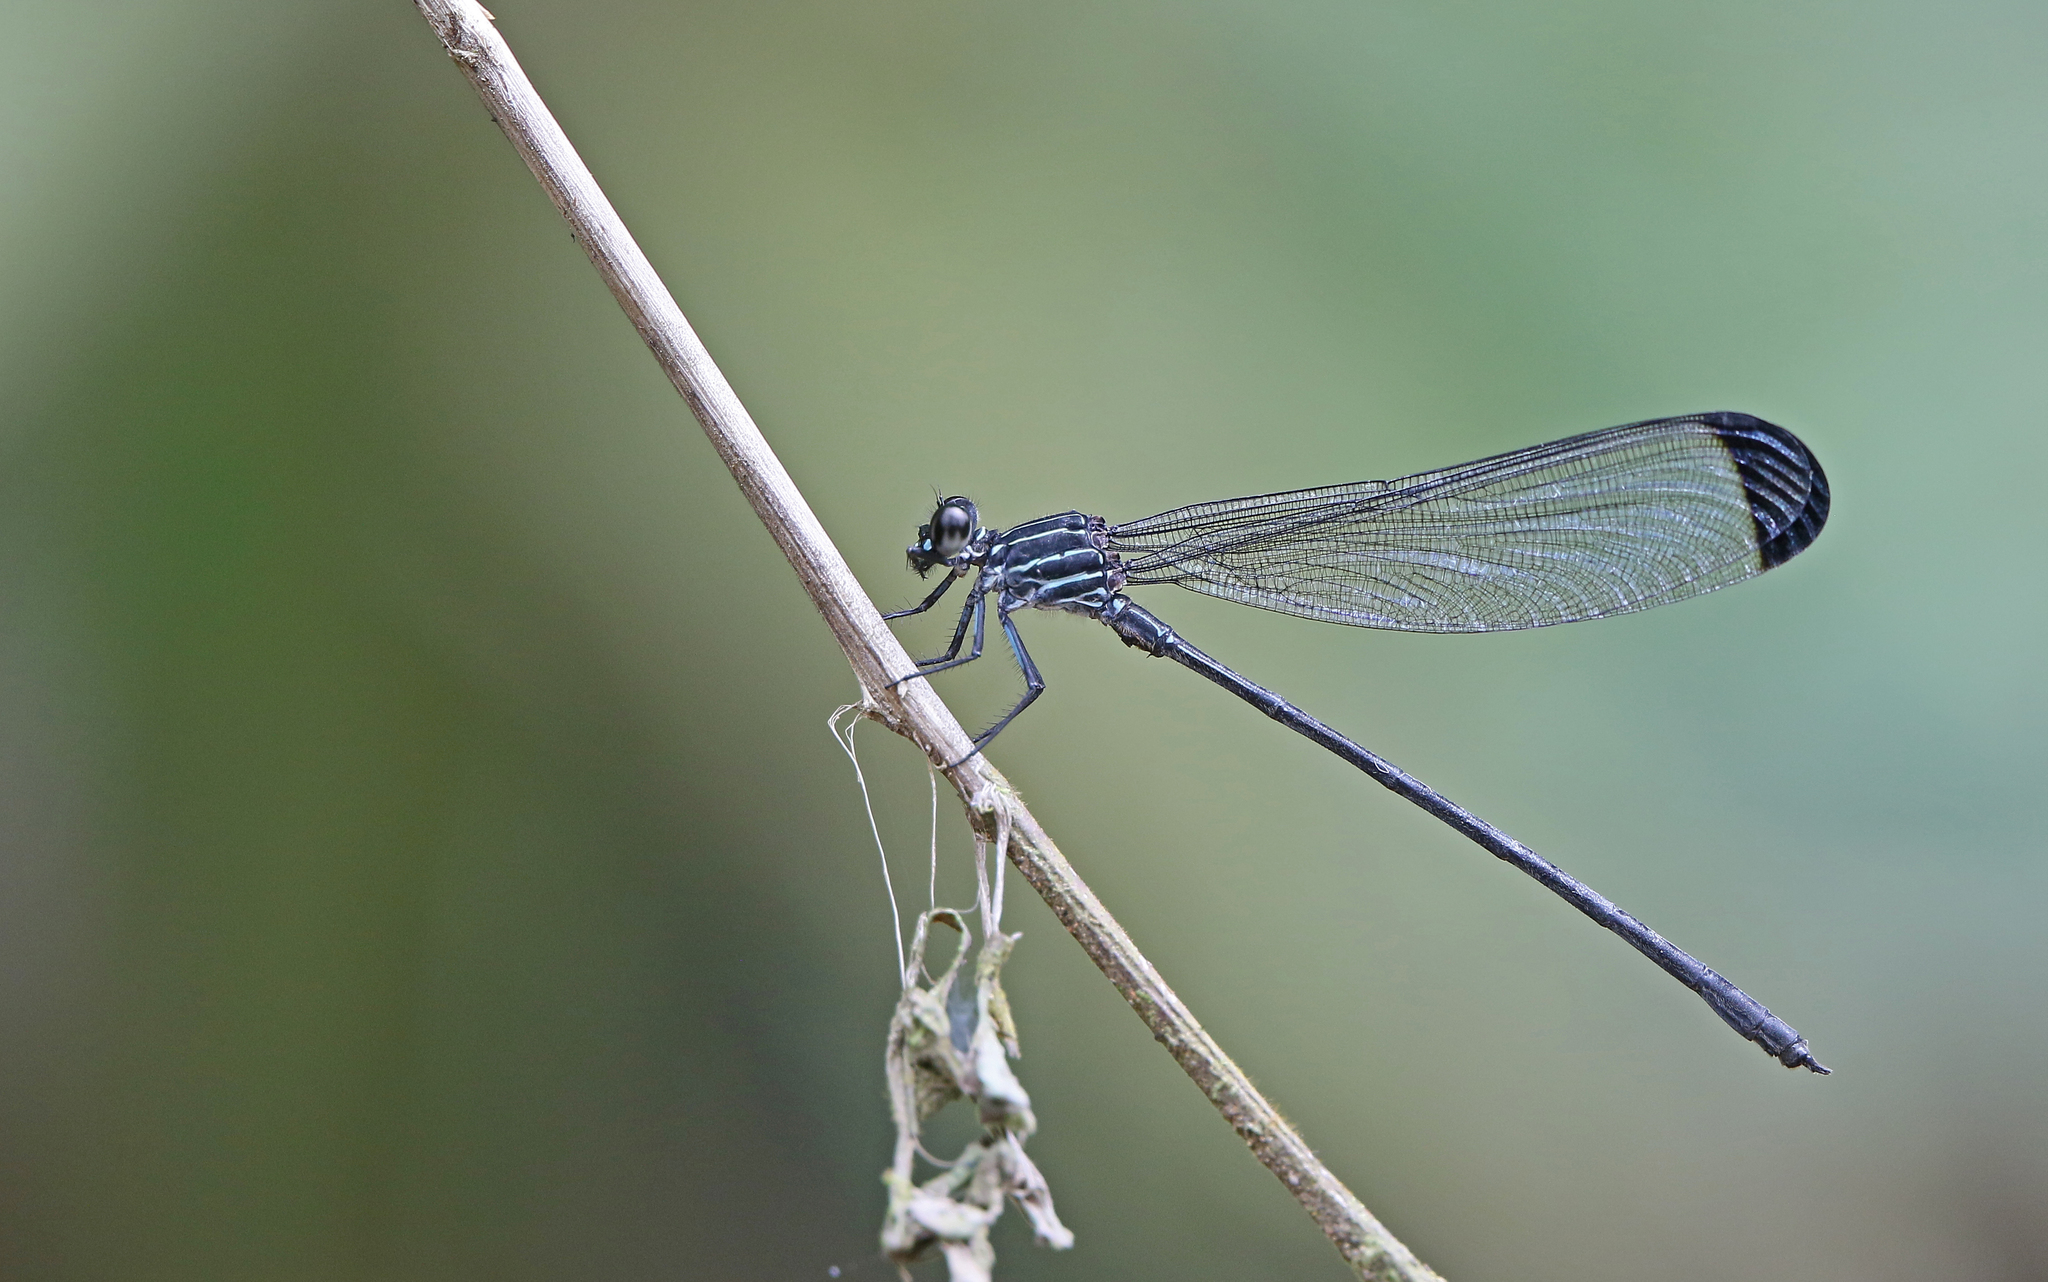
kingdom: Animalia
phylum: Arthropoda
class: Insecta
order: Odonata
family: Polythoridae
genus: Polythore
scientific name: Polythore terminata
